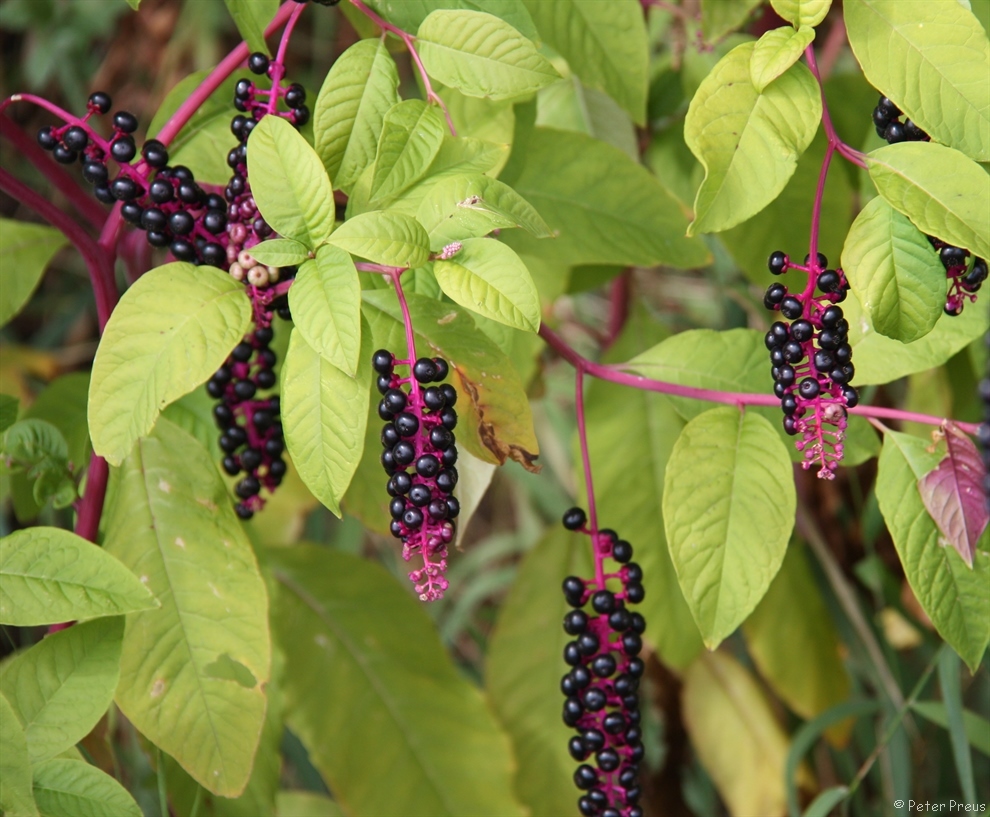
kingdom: Plantae
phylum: Tracheophyta
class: Magnoliopsida
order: Caryophyllales
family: Phytolaccaceae
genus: Phytolacca
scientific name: Phytolacca americana
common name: American pokeweed
